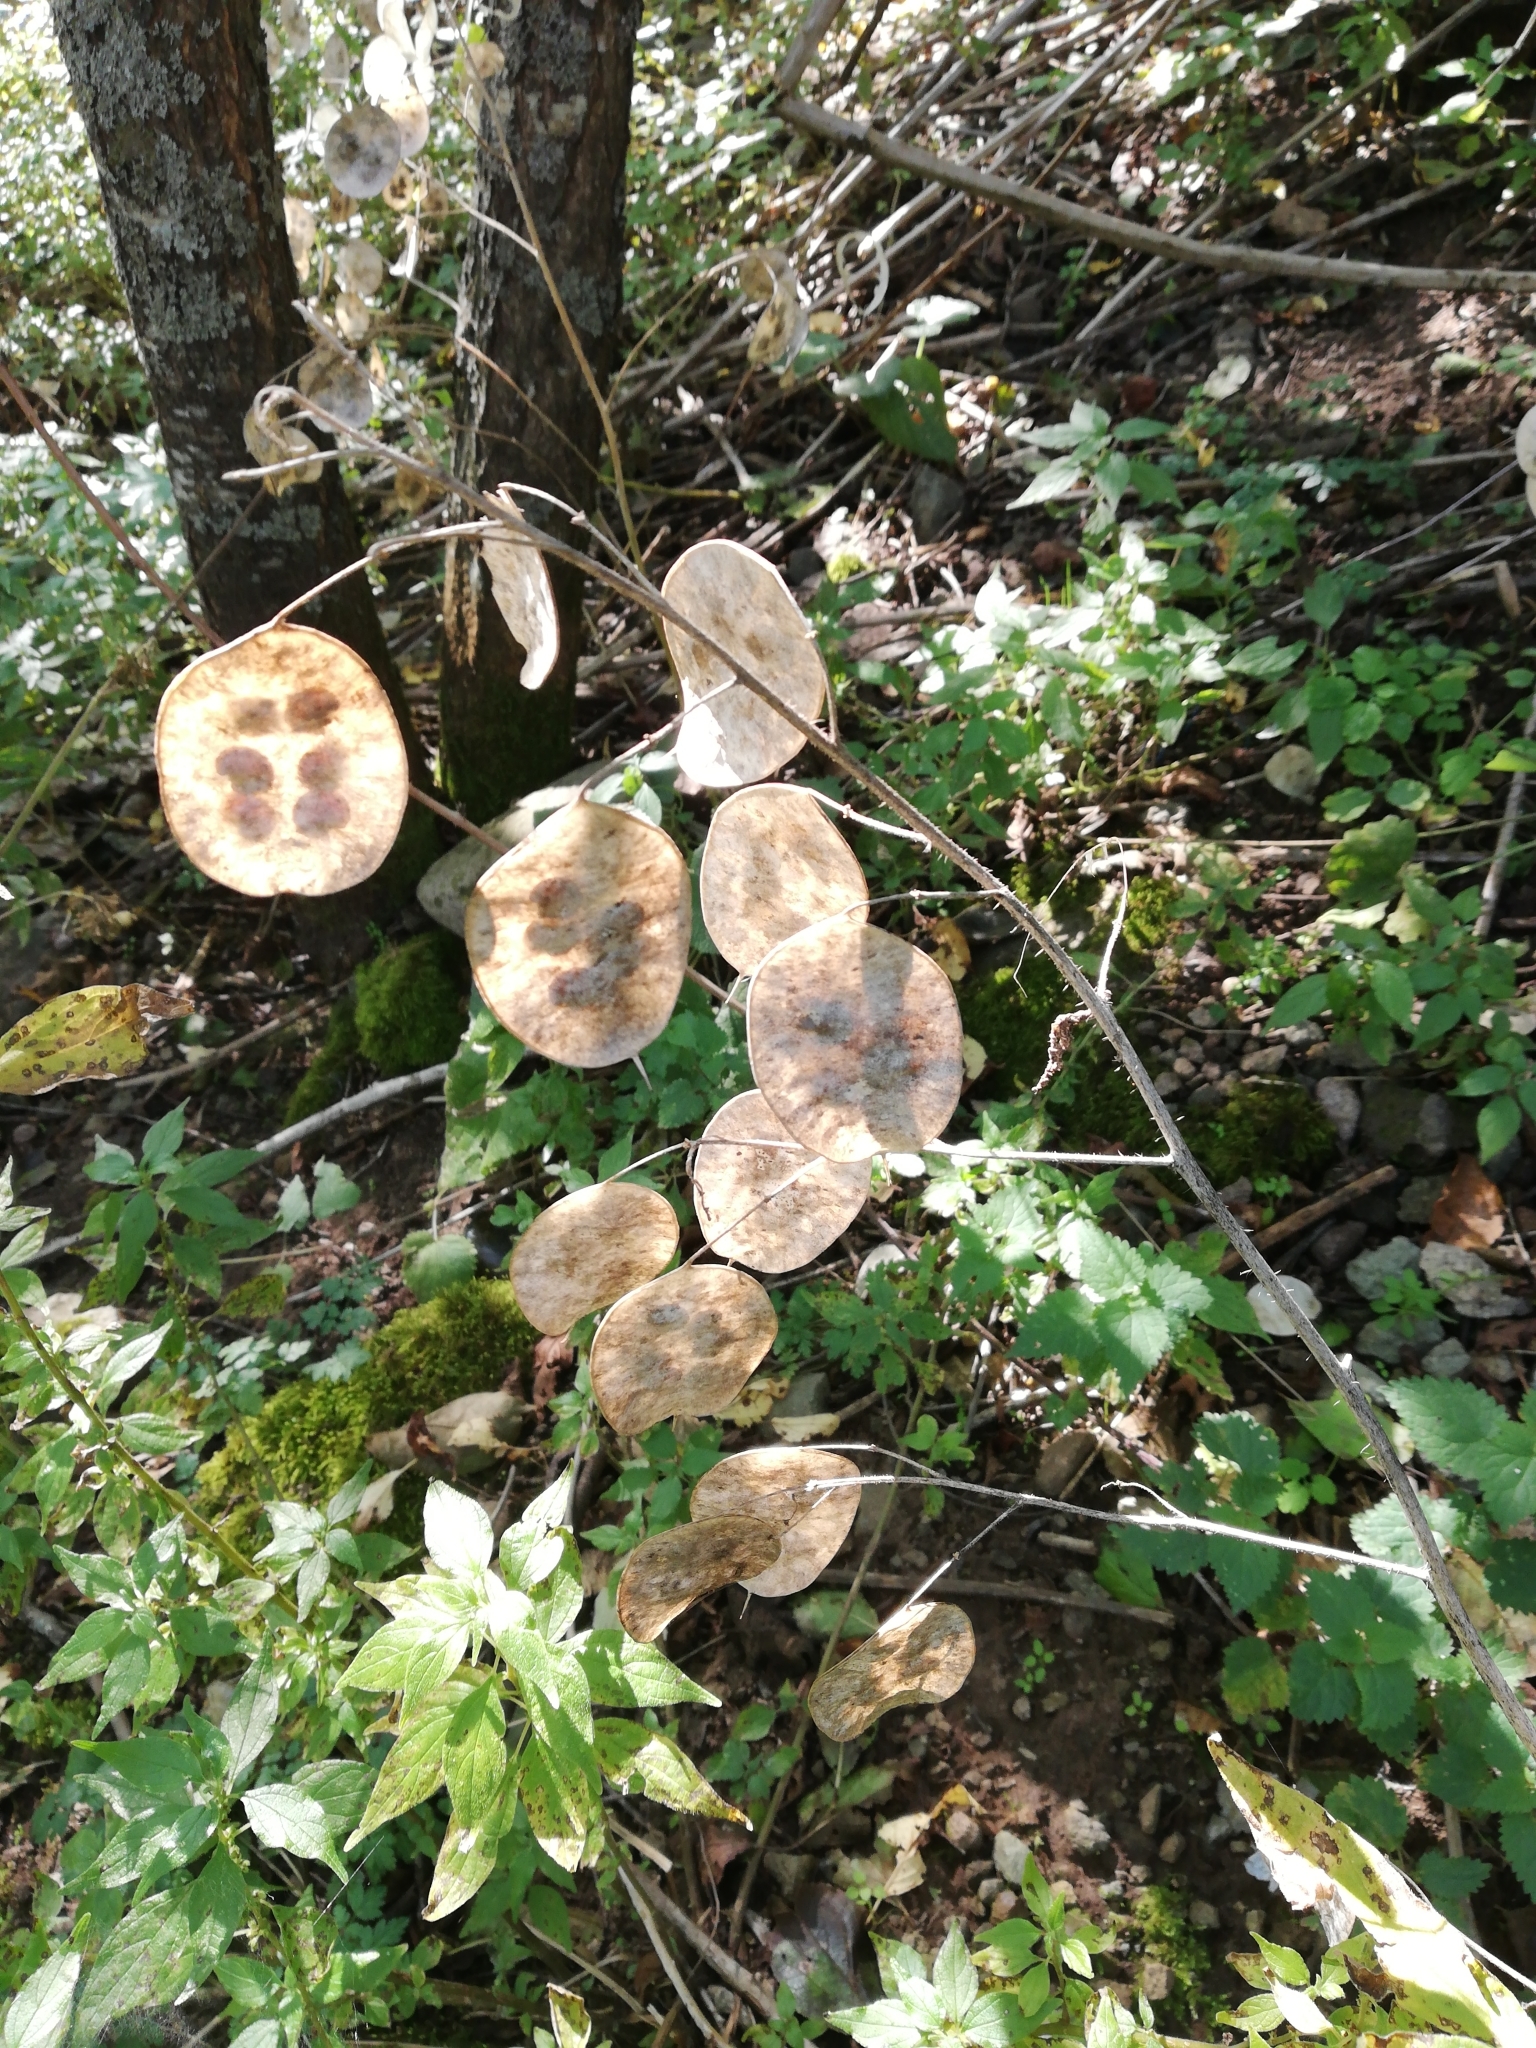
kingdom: Plantae
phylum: Tracheophyta
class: Magnoliopsida
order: Brassicales
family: Brassicaceae
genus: Lunaria
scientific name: Lunaria annua
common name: Honesty
